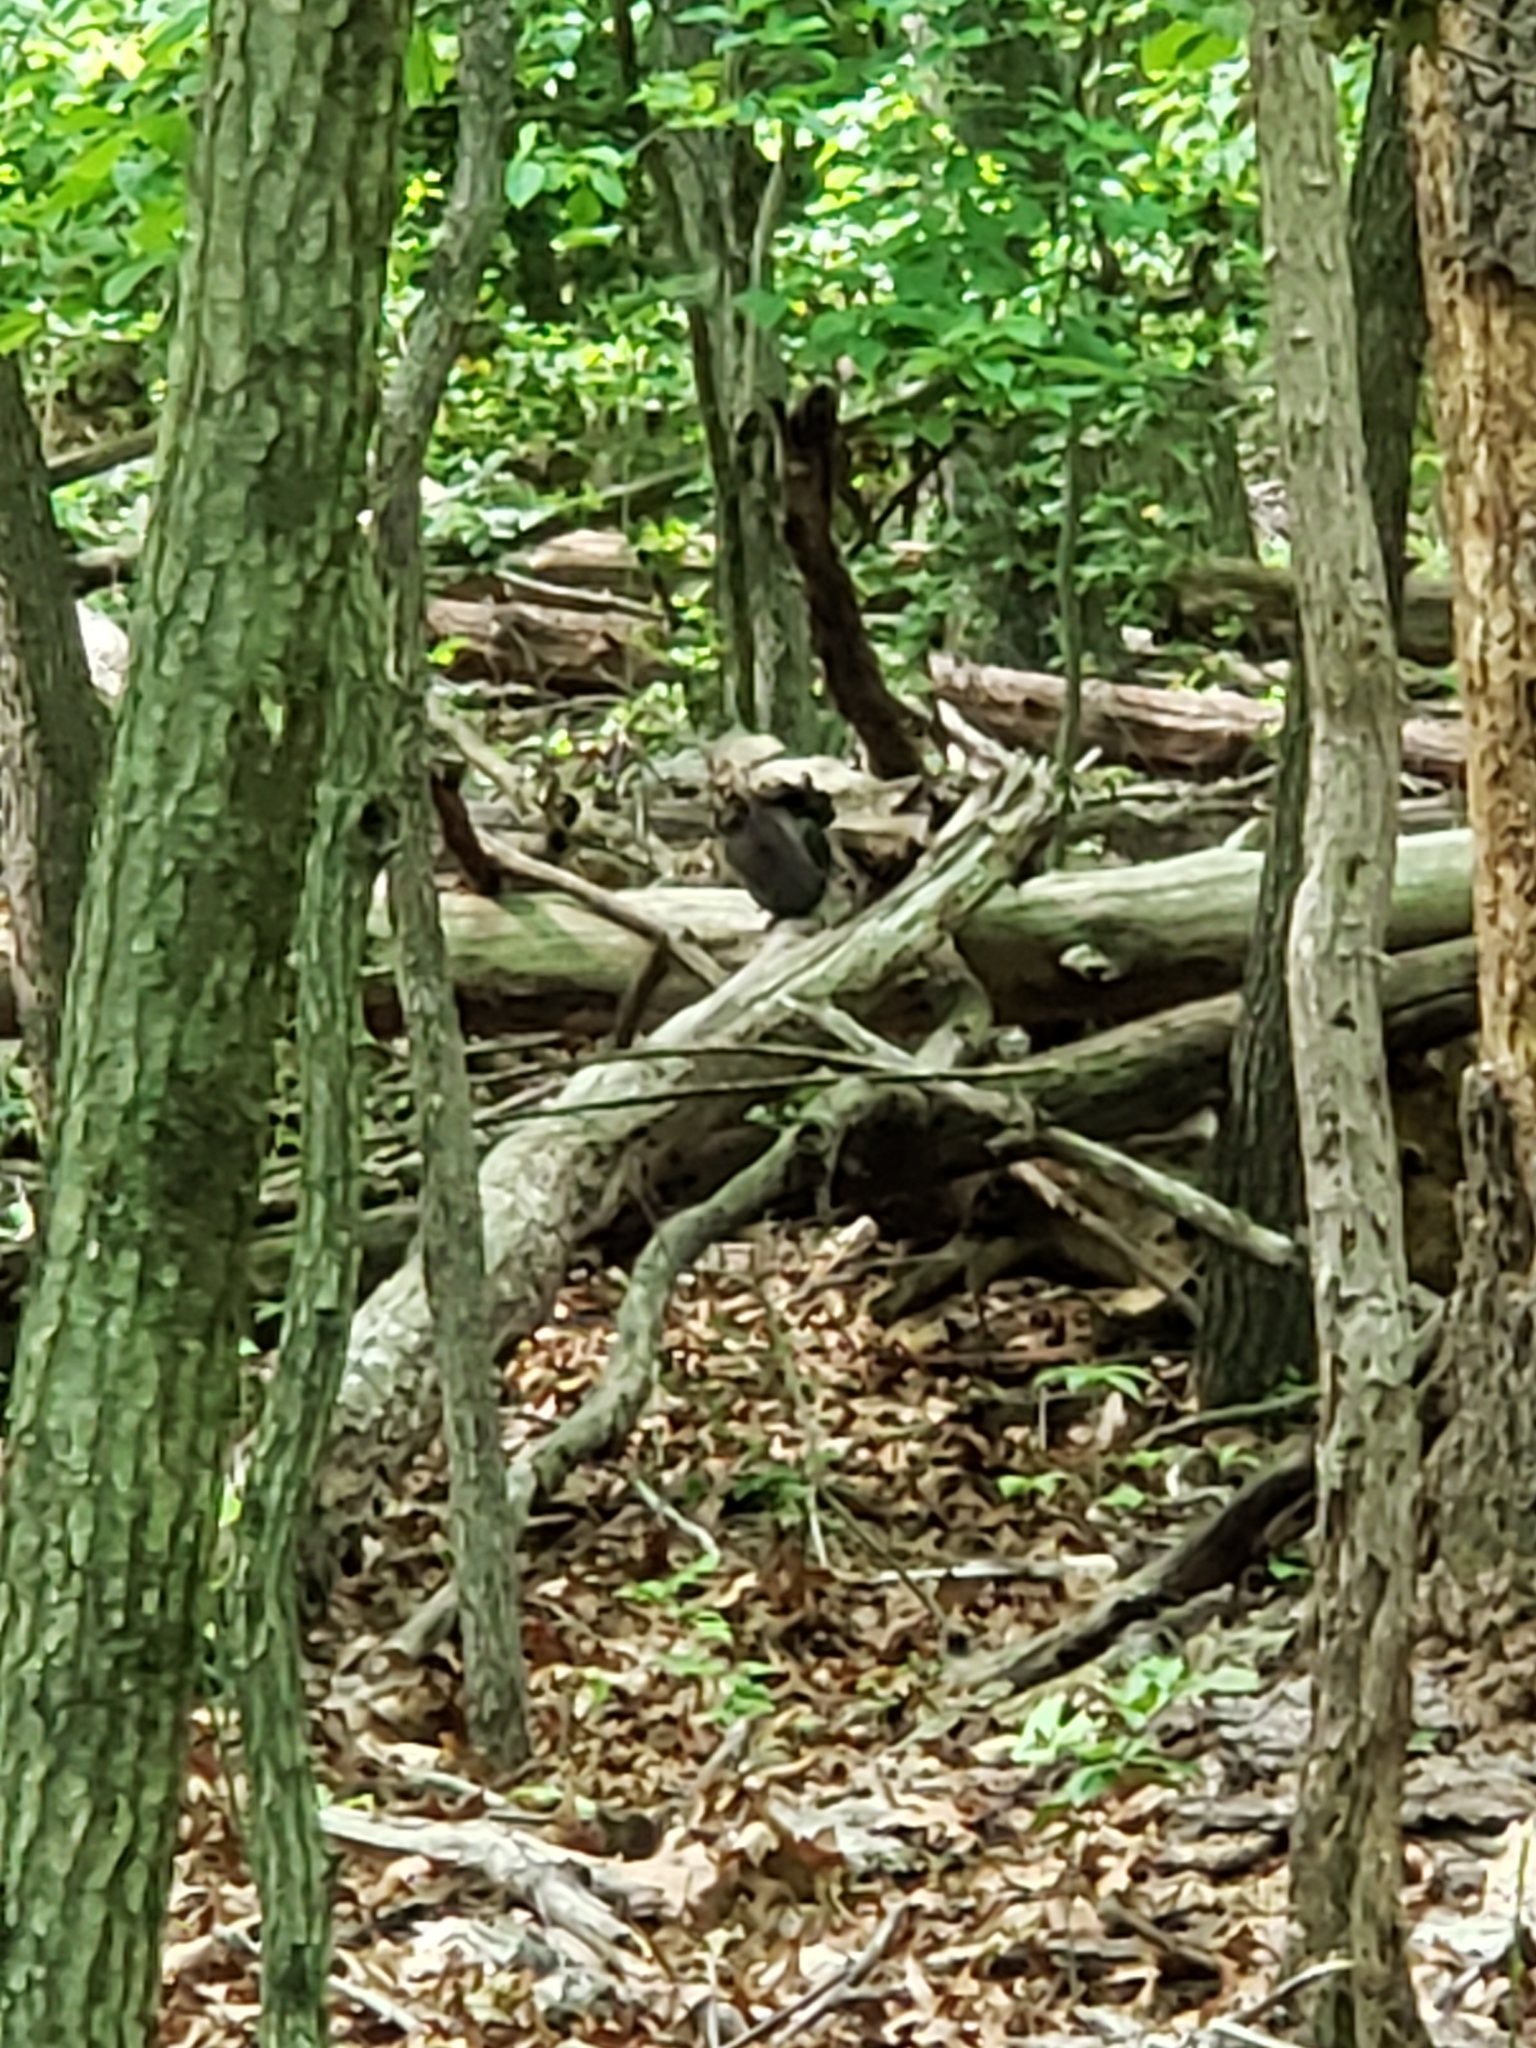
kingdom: Animalia
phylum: Chordata
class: Mammalia
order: Rodentia
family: Sciuridae
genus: Sciurus
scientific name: Sciurus carolinensis
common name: Eastern gray squirrel
